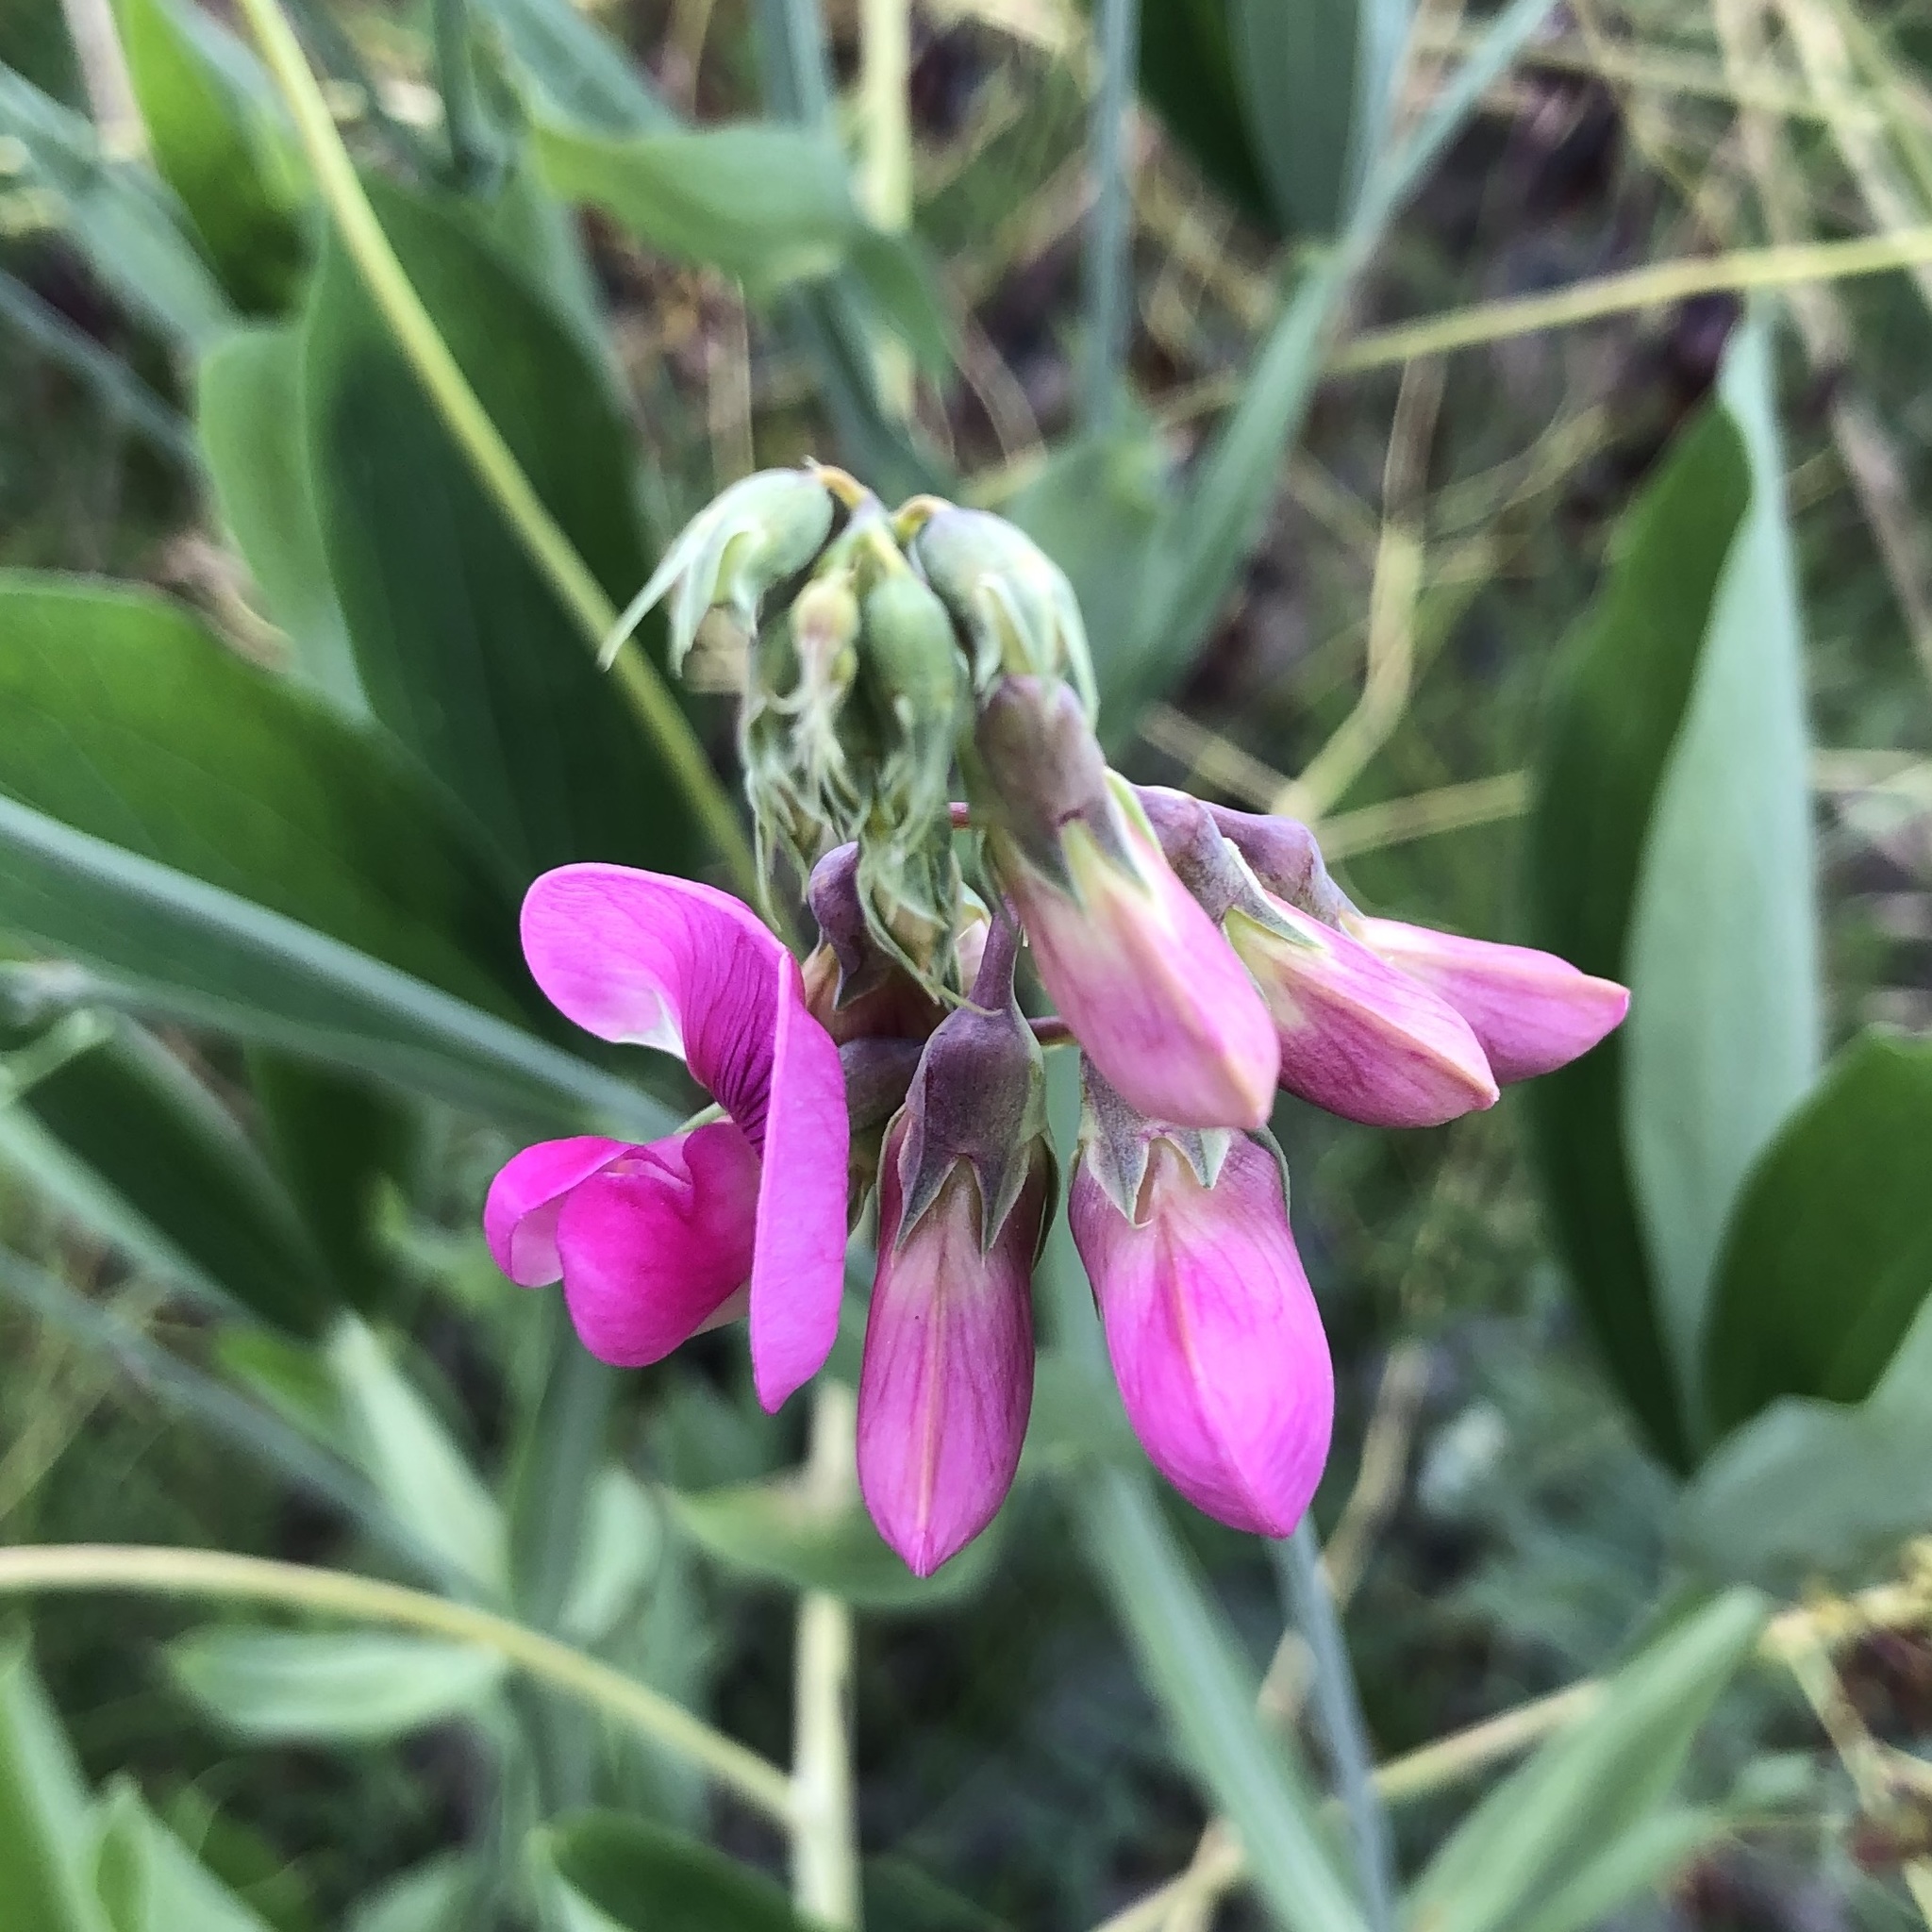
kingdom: Plantae
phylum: Tracheophyta
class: Magnoliopsida
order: Fabales
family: Fabaceae
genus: Lathyrus
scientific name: Lathyrus latifolius
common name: Perennial pea
